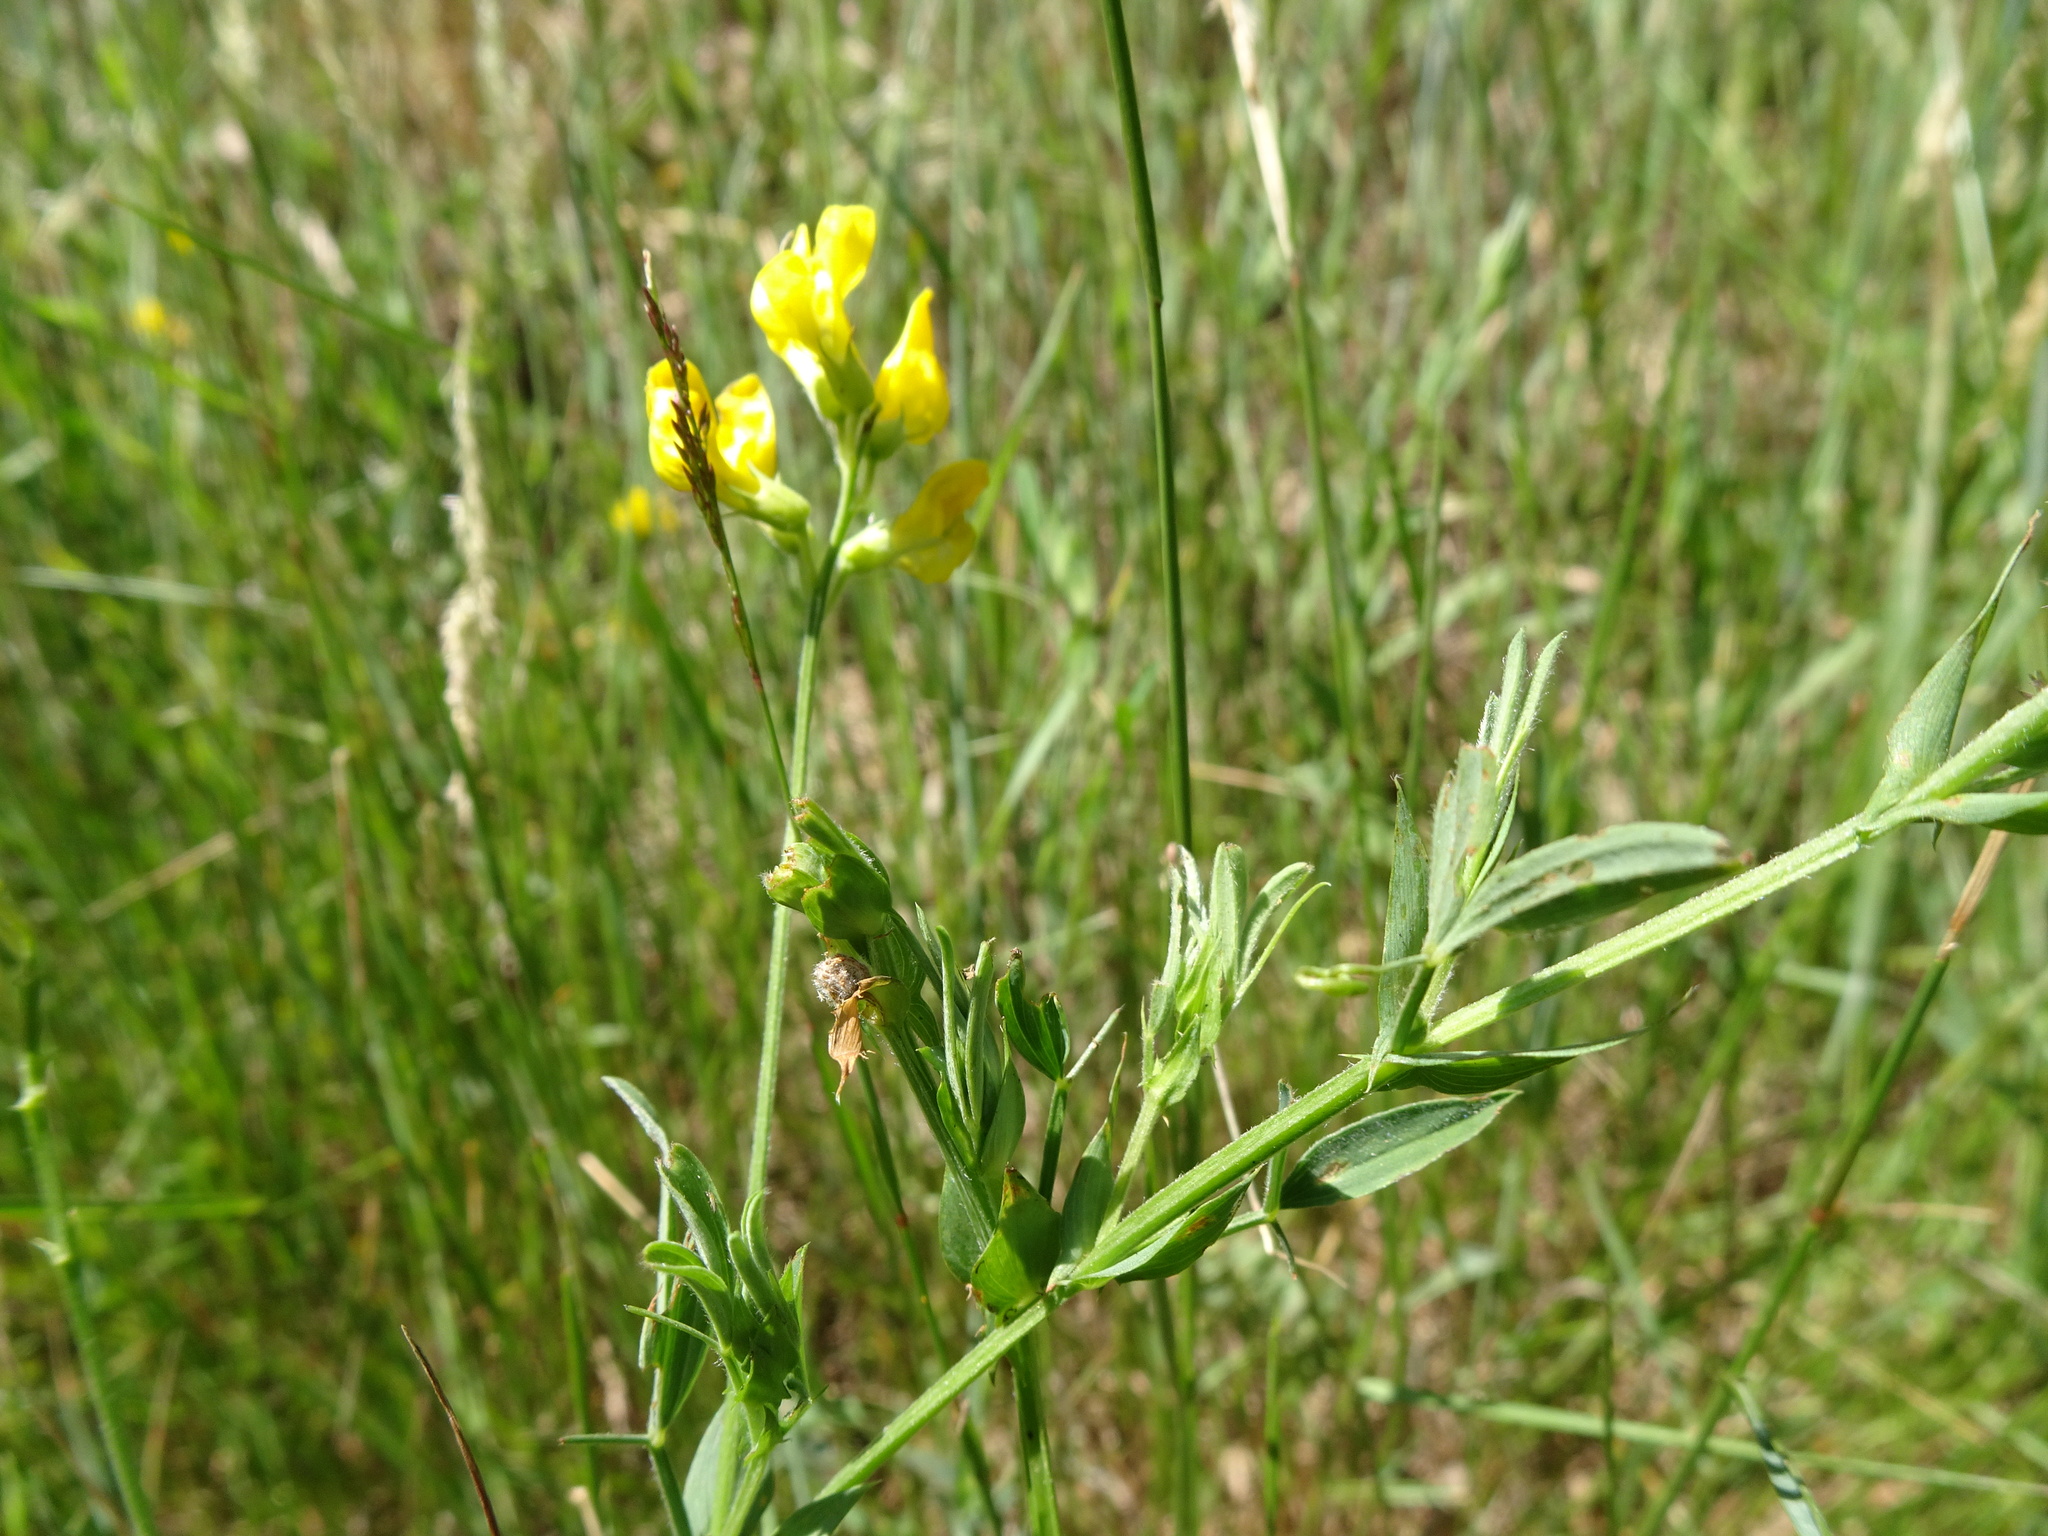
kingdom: Plantae
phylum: Tracheophyta
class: Magnoliopsida
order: Fabales
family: Fabaceae
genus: Lathyrus
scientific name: Lathyrus pratensis
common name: Meadow vetchling
